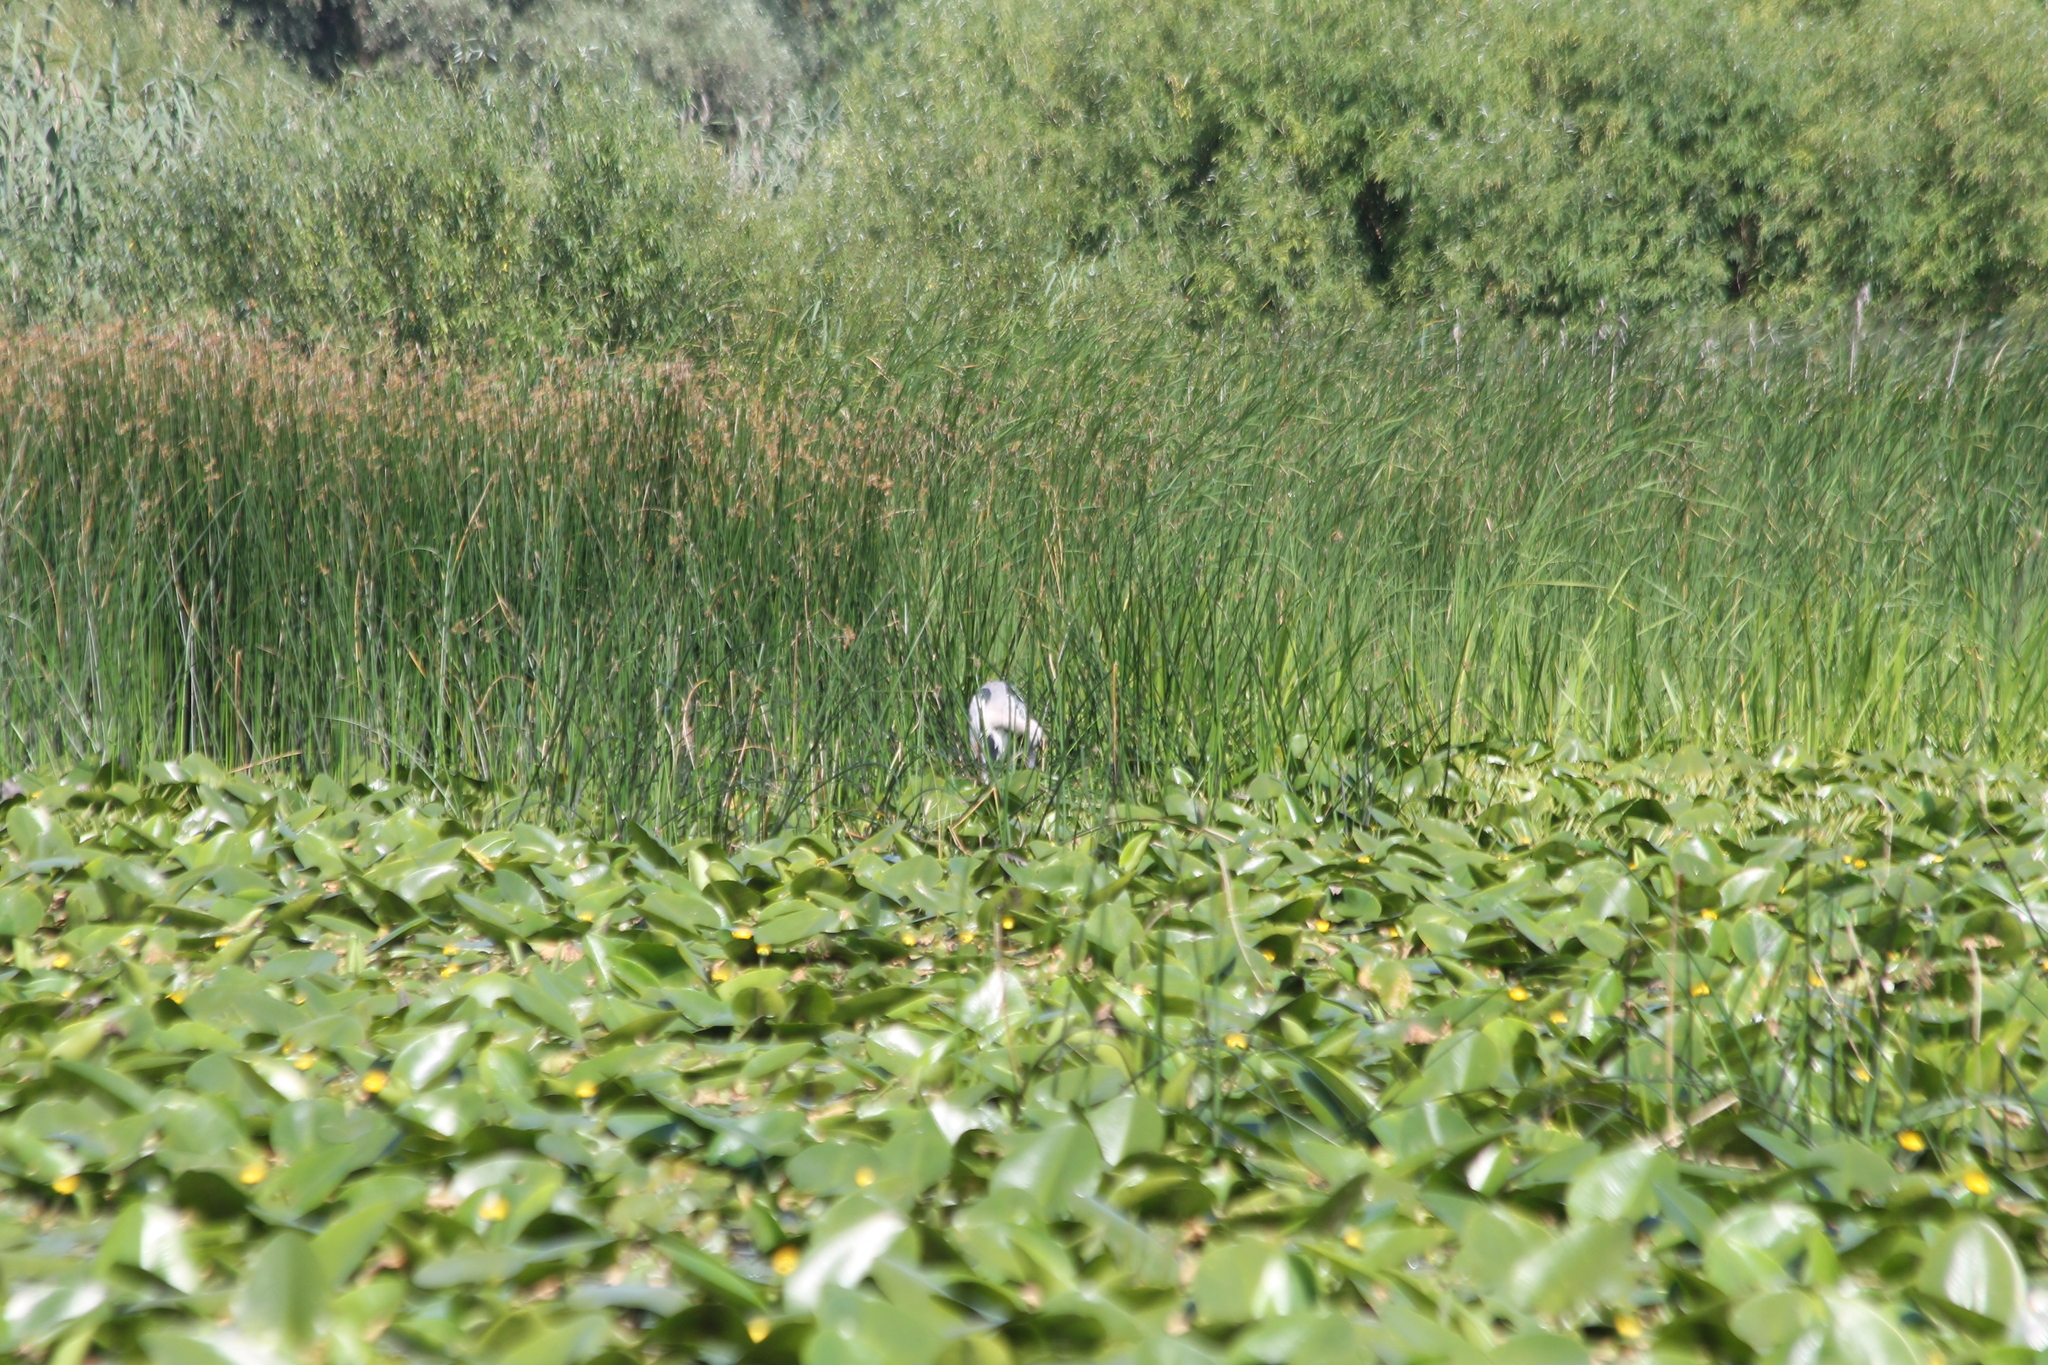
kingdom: Animalia
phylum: Chordata
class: Aves
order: Pelecaniformes
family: Ardeidae
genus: Ardea
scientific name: Ardea cinerea
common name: Grey heron
